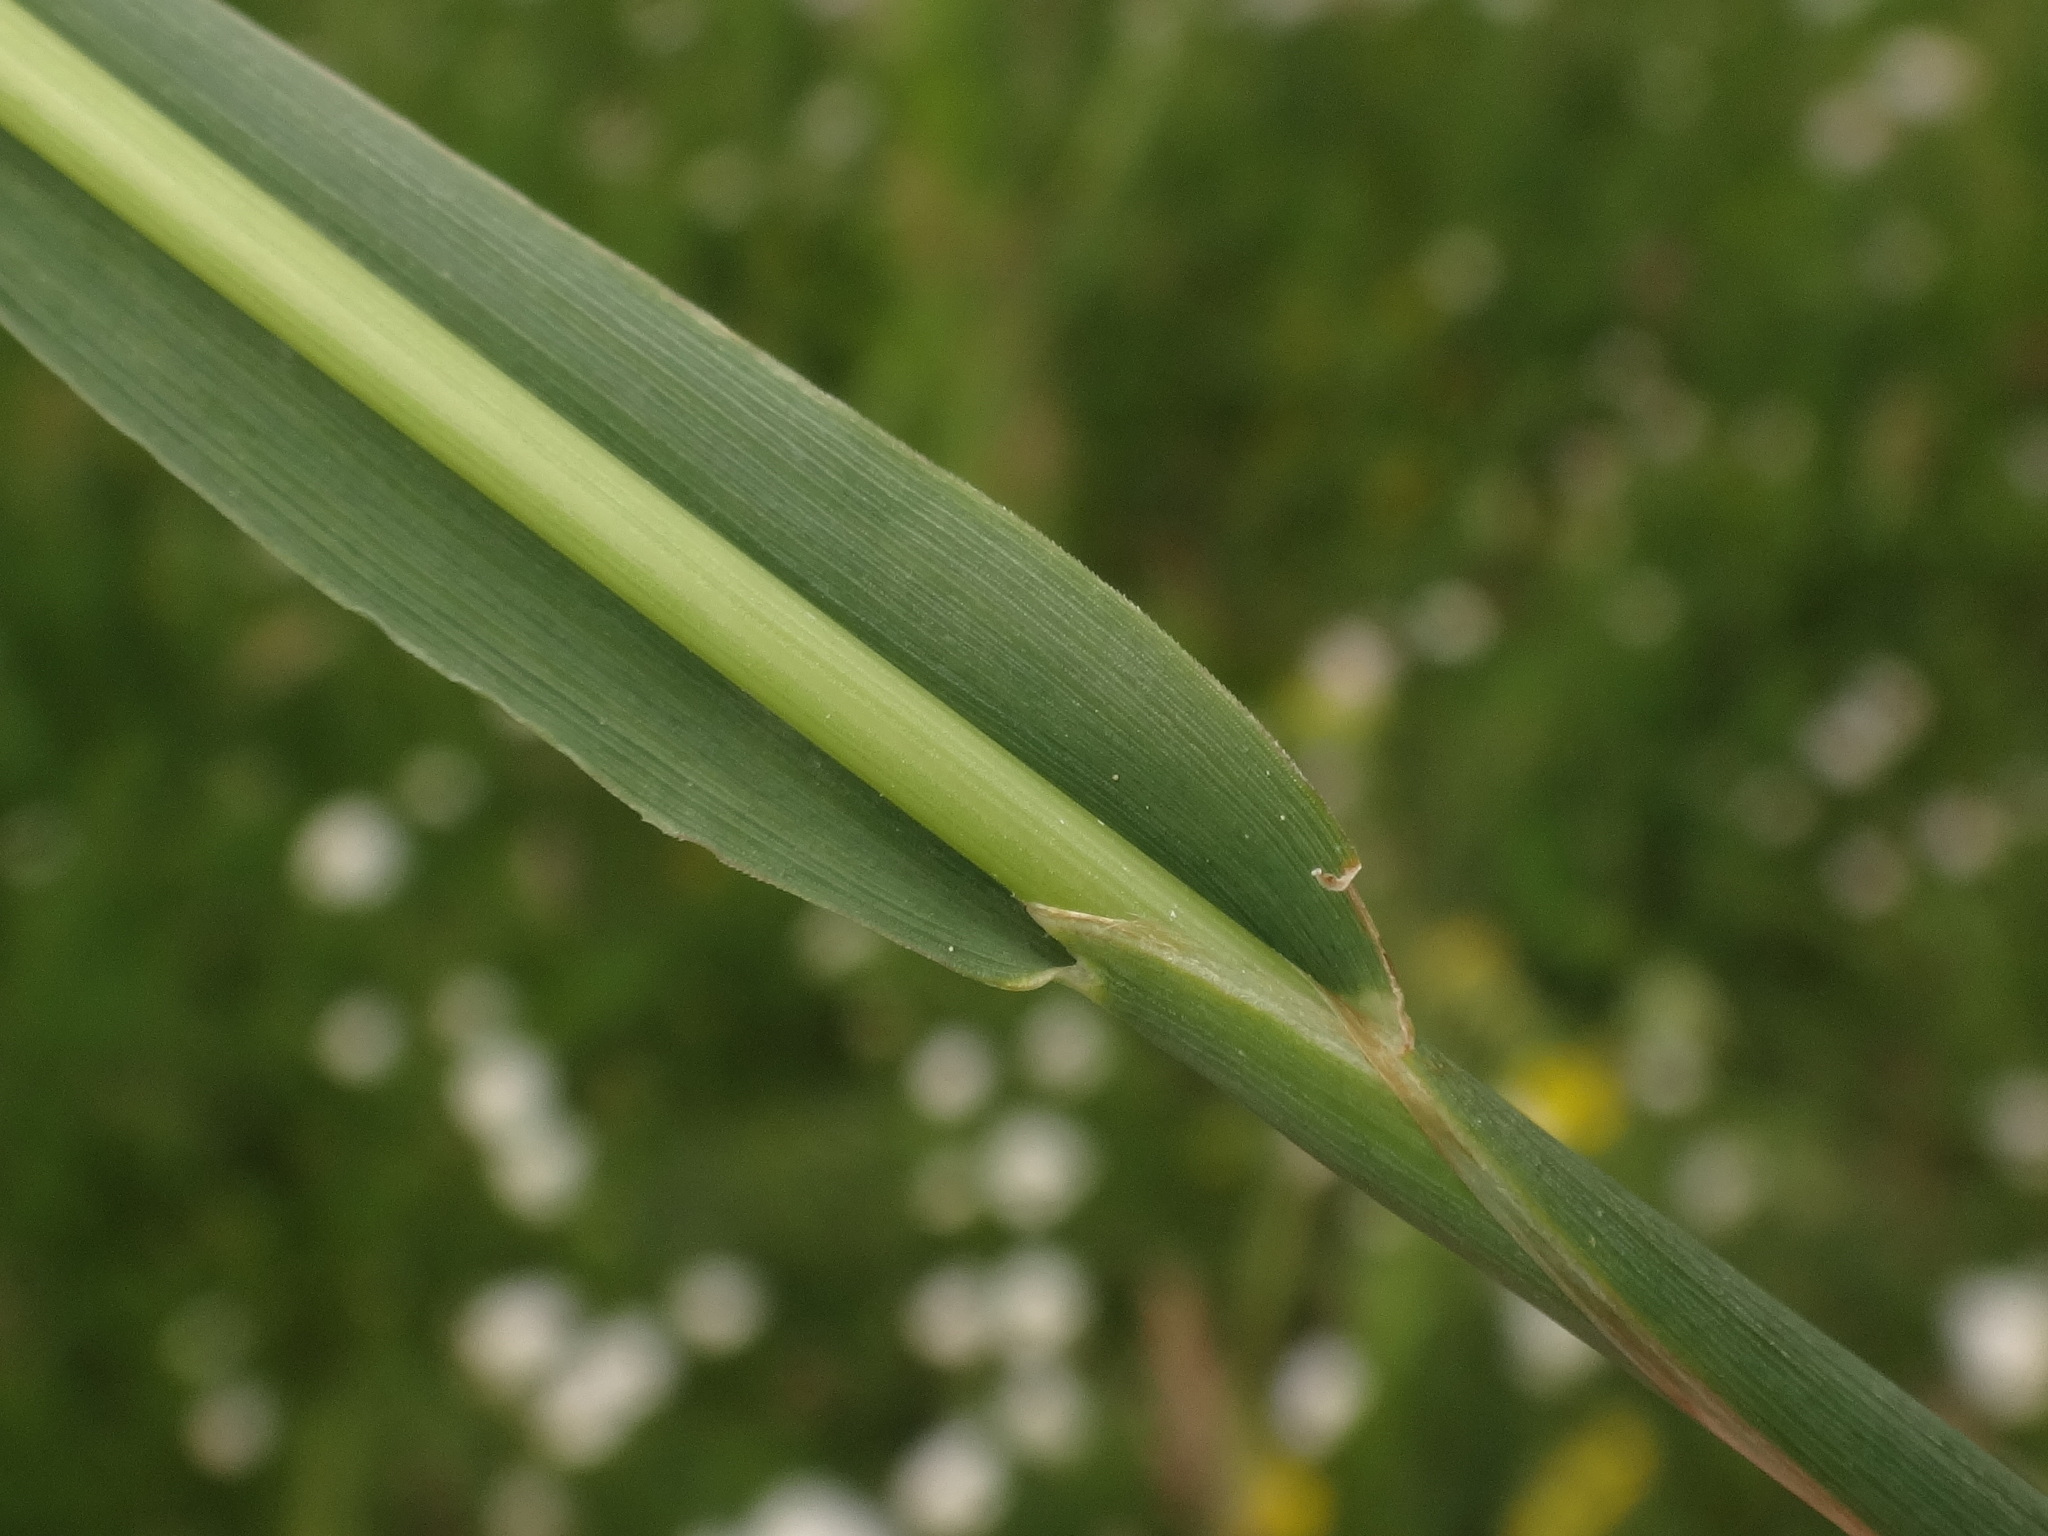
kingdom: Plantae
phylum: Tracheophyta
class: Liliopsida
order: Poales
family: Poaceae
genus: Briza
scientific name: Briza media
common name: Quaking grass
